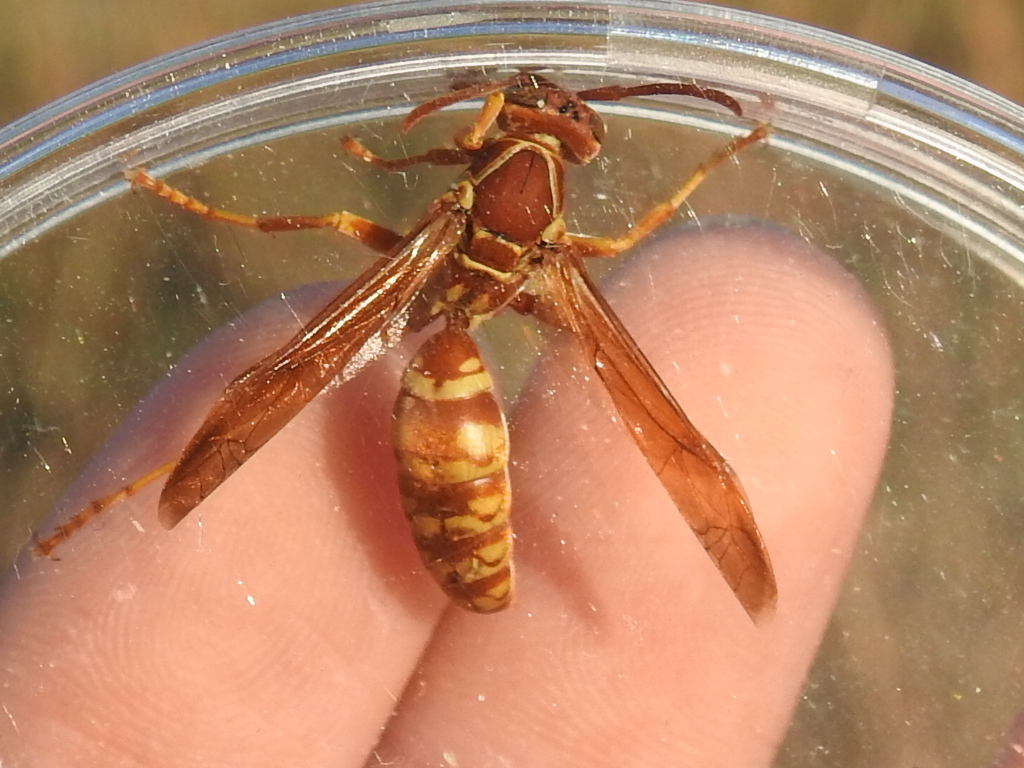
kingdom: Animalia
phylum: Arthropoda
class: Insecta
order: Hymenoptera
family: Eumenidae
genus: Polistes
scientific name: Polistes apachus
